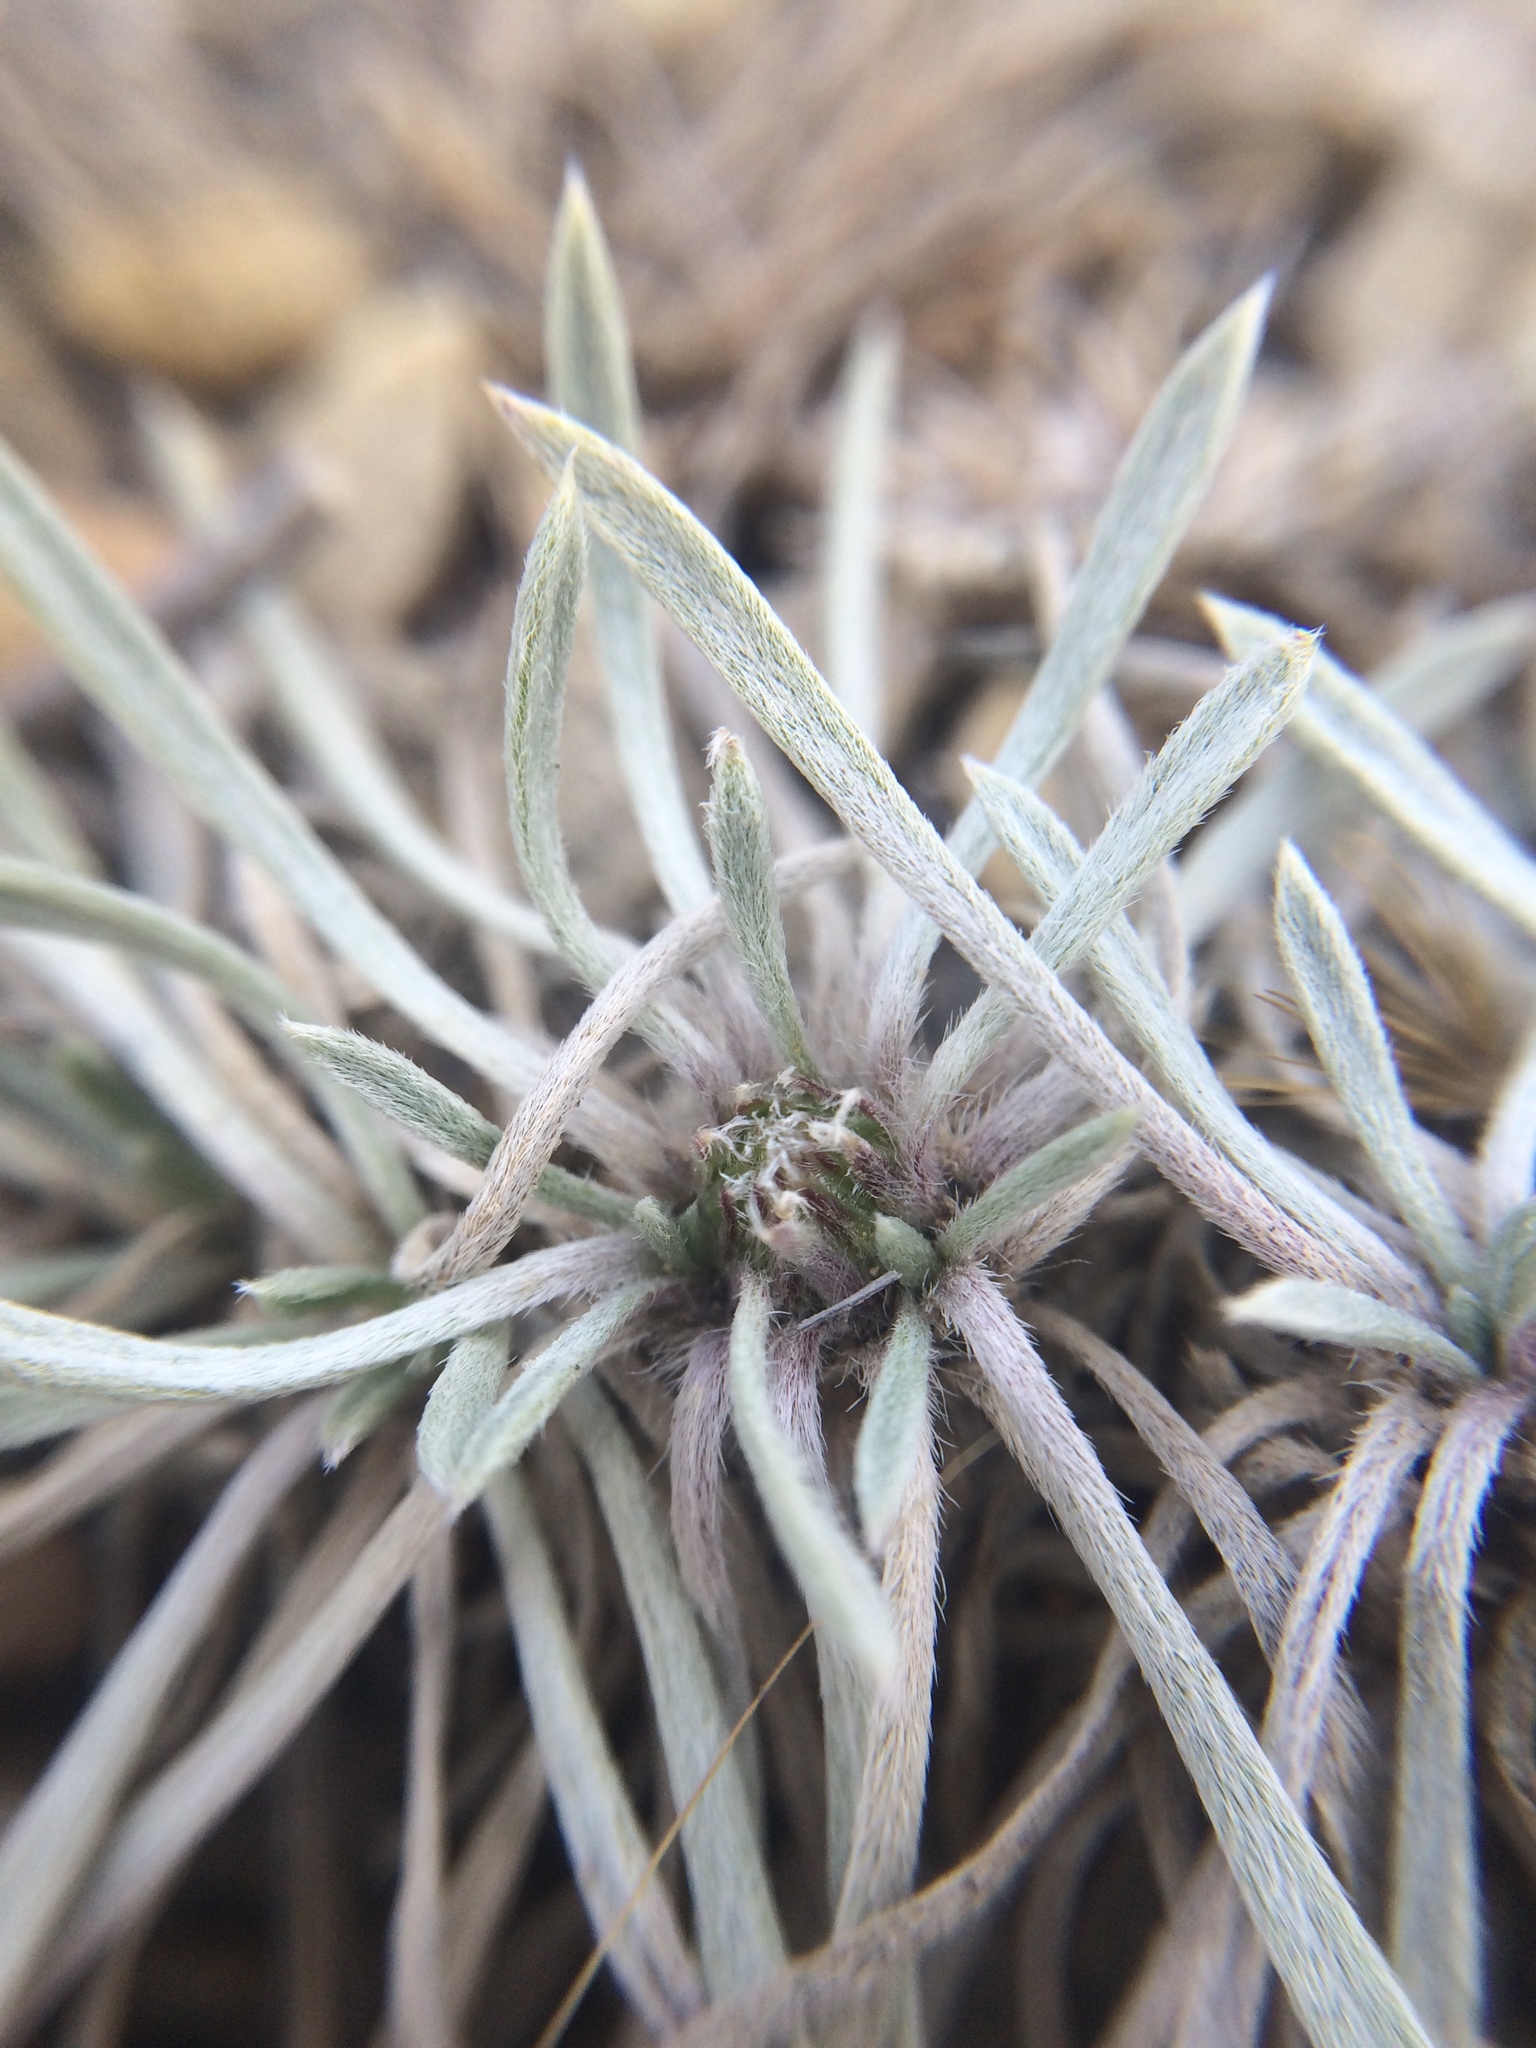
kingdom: Plantae
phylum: Tracheophyta
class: Magnoliopsida
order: Asterales
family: Asteraceae
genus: Townsendia
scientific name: Townsendia hookeri
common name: Hooker's townsend daisy
